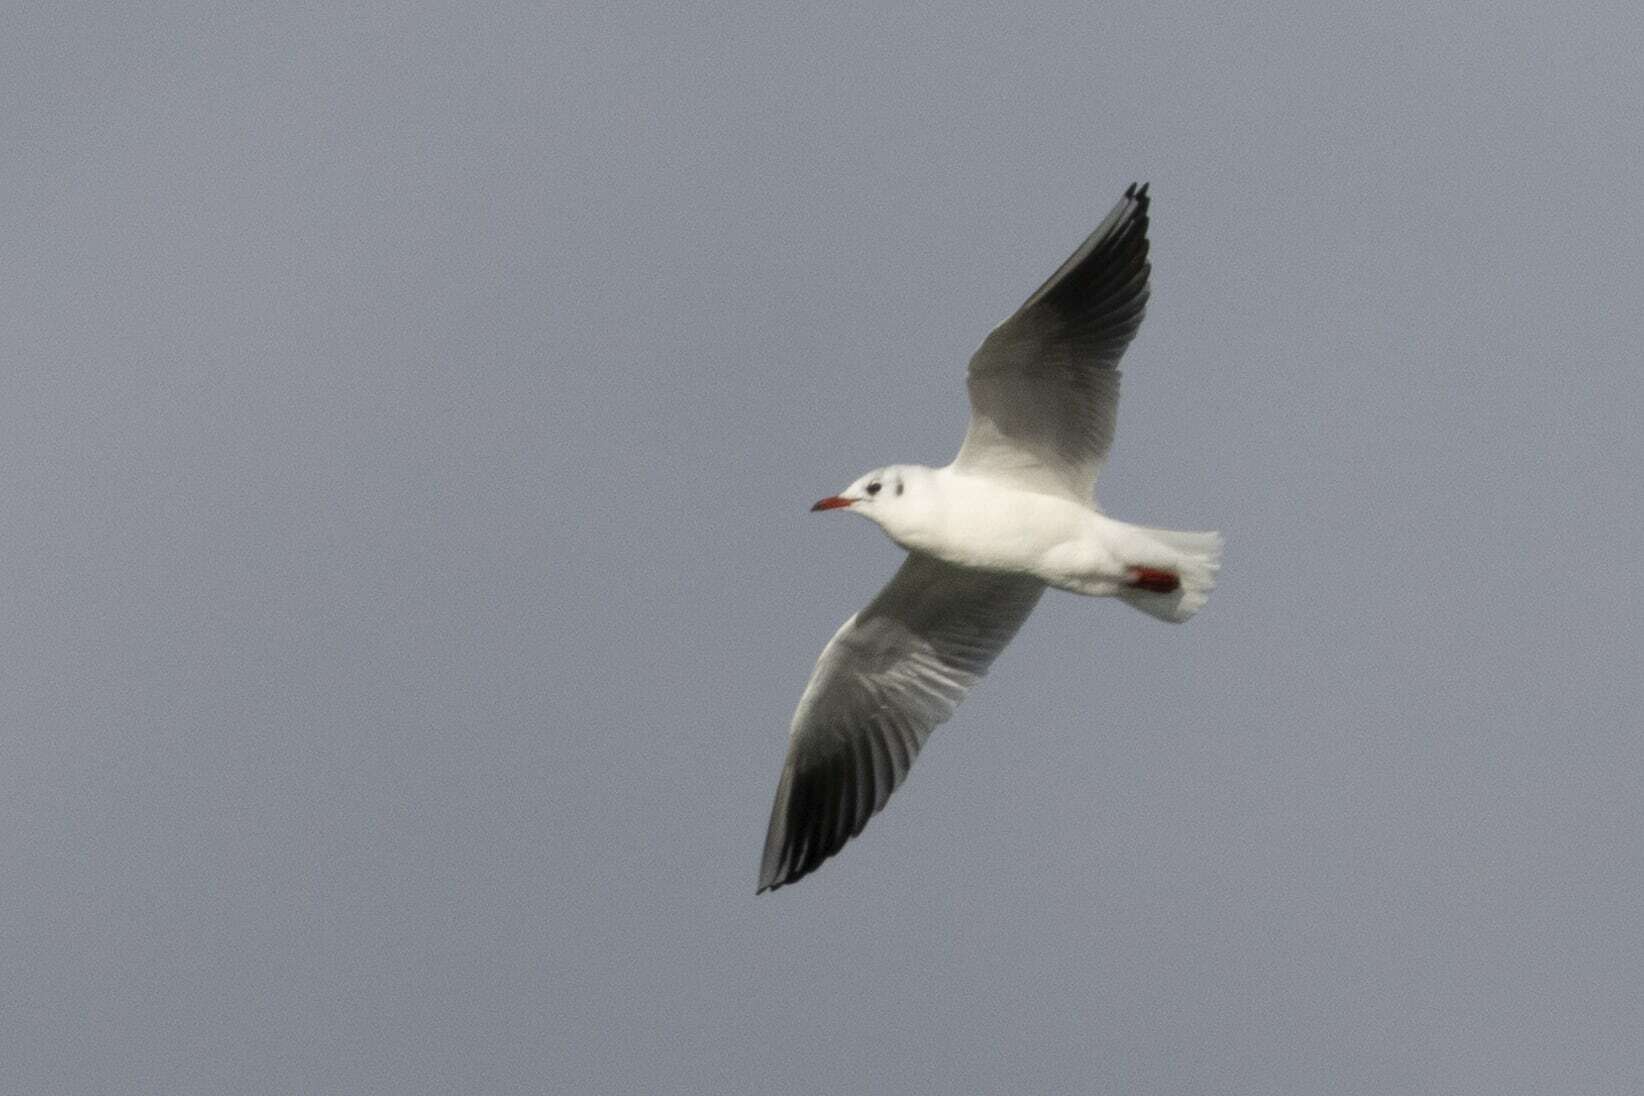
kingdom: Animalia
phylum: Chordata
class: Aves
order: Charadriiformes
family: Laridae
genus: Chroicocephalus
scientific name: Chroicocephalus ridibundus
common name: Black-headed gull
